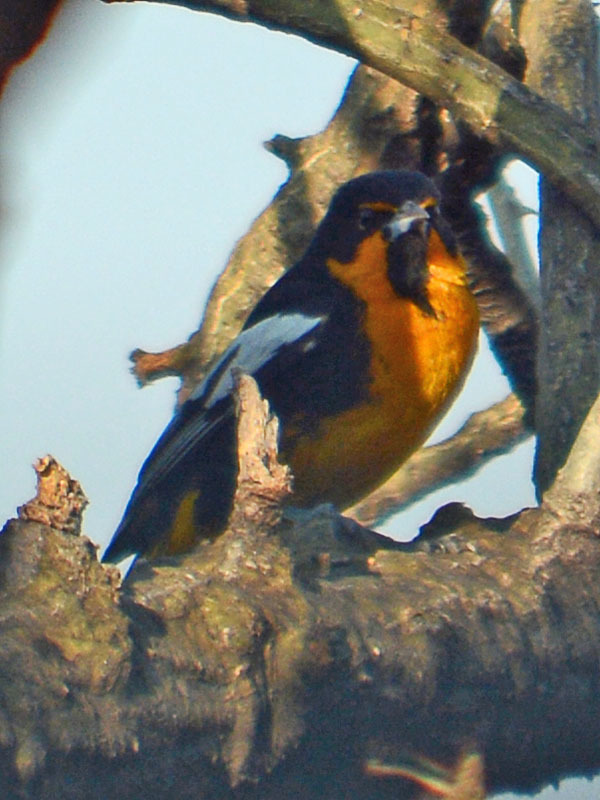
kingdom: Animalia
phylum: Chordata
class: Aves
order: Passeriformes
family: Icteridae
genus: Icterus
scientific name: Icterus abeillei
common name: Black-backed oriole
